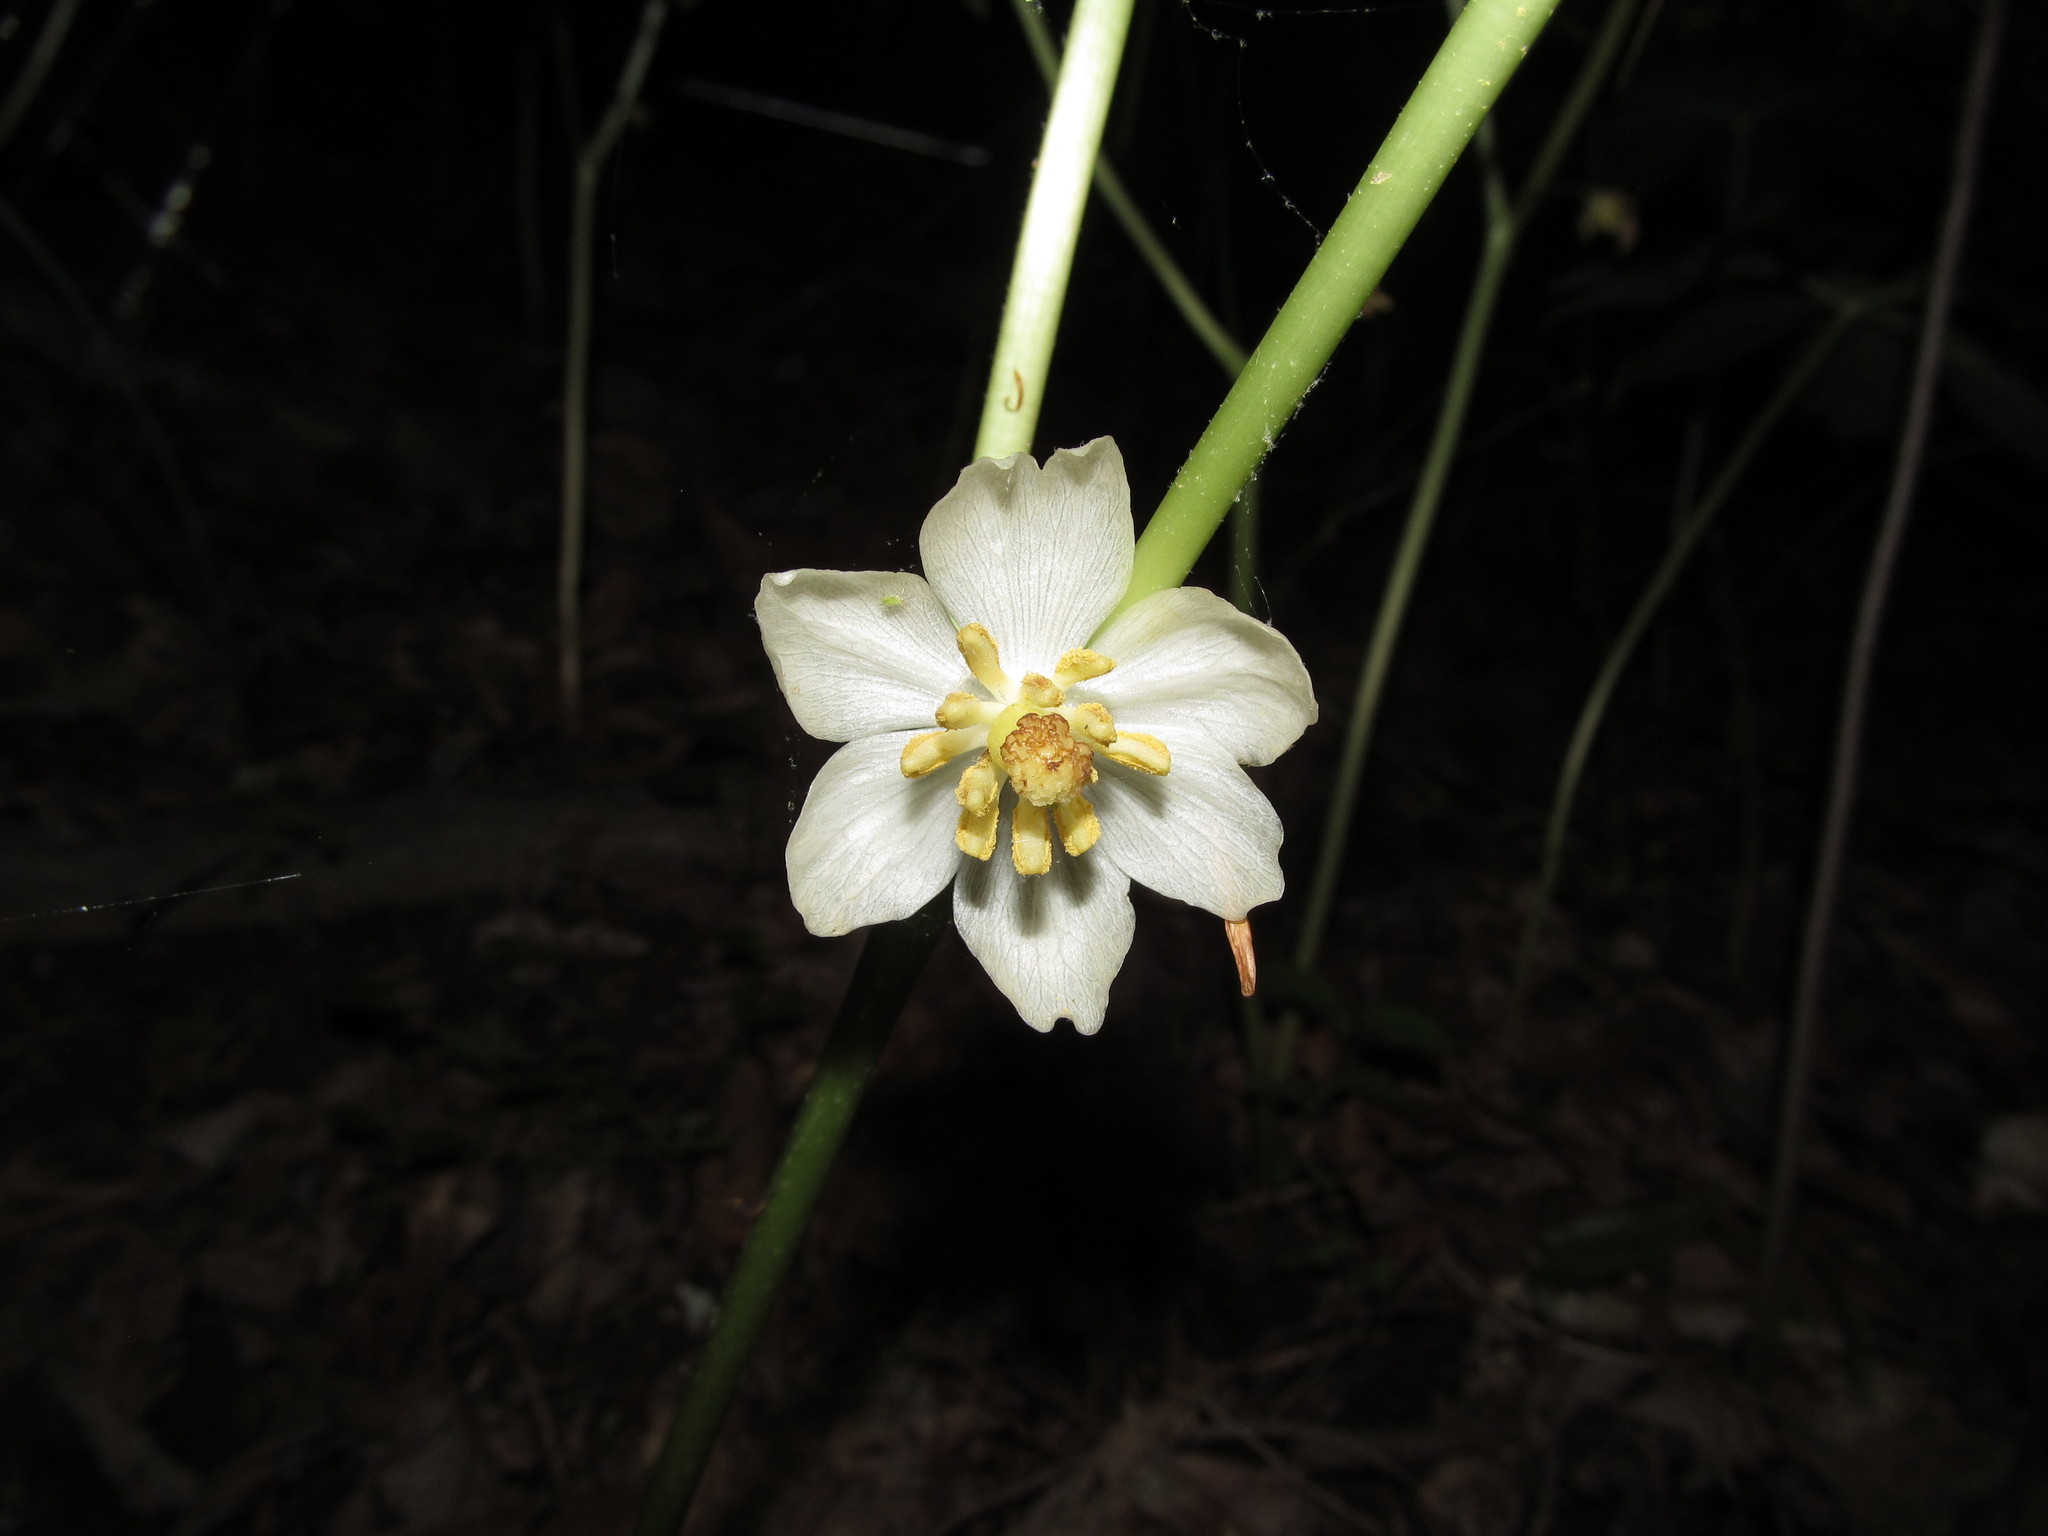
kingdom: Plantae
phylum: Tracheophyta
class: Magnoliopsida
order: Ranunculales
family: Berberidaceae
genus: Podophyllum
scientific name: Podophyllum peltatum
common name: Wild mandrake
